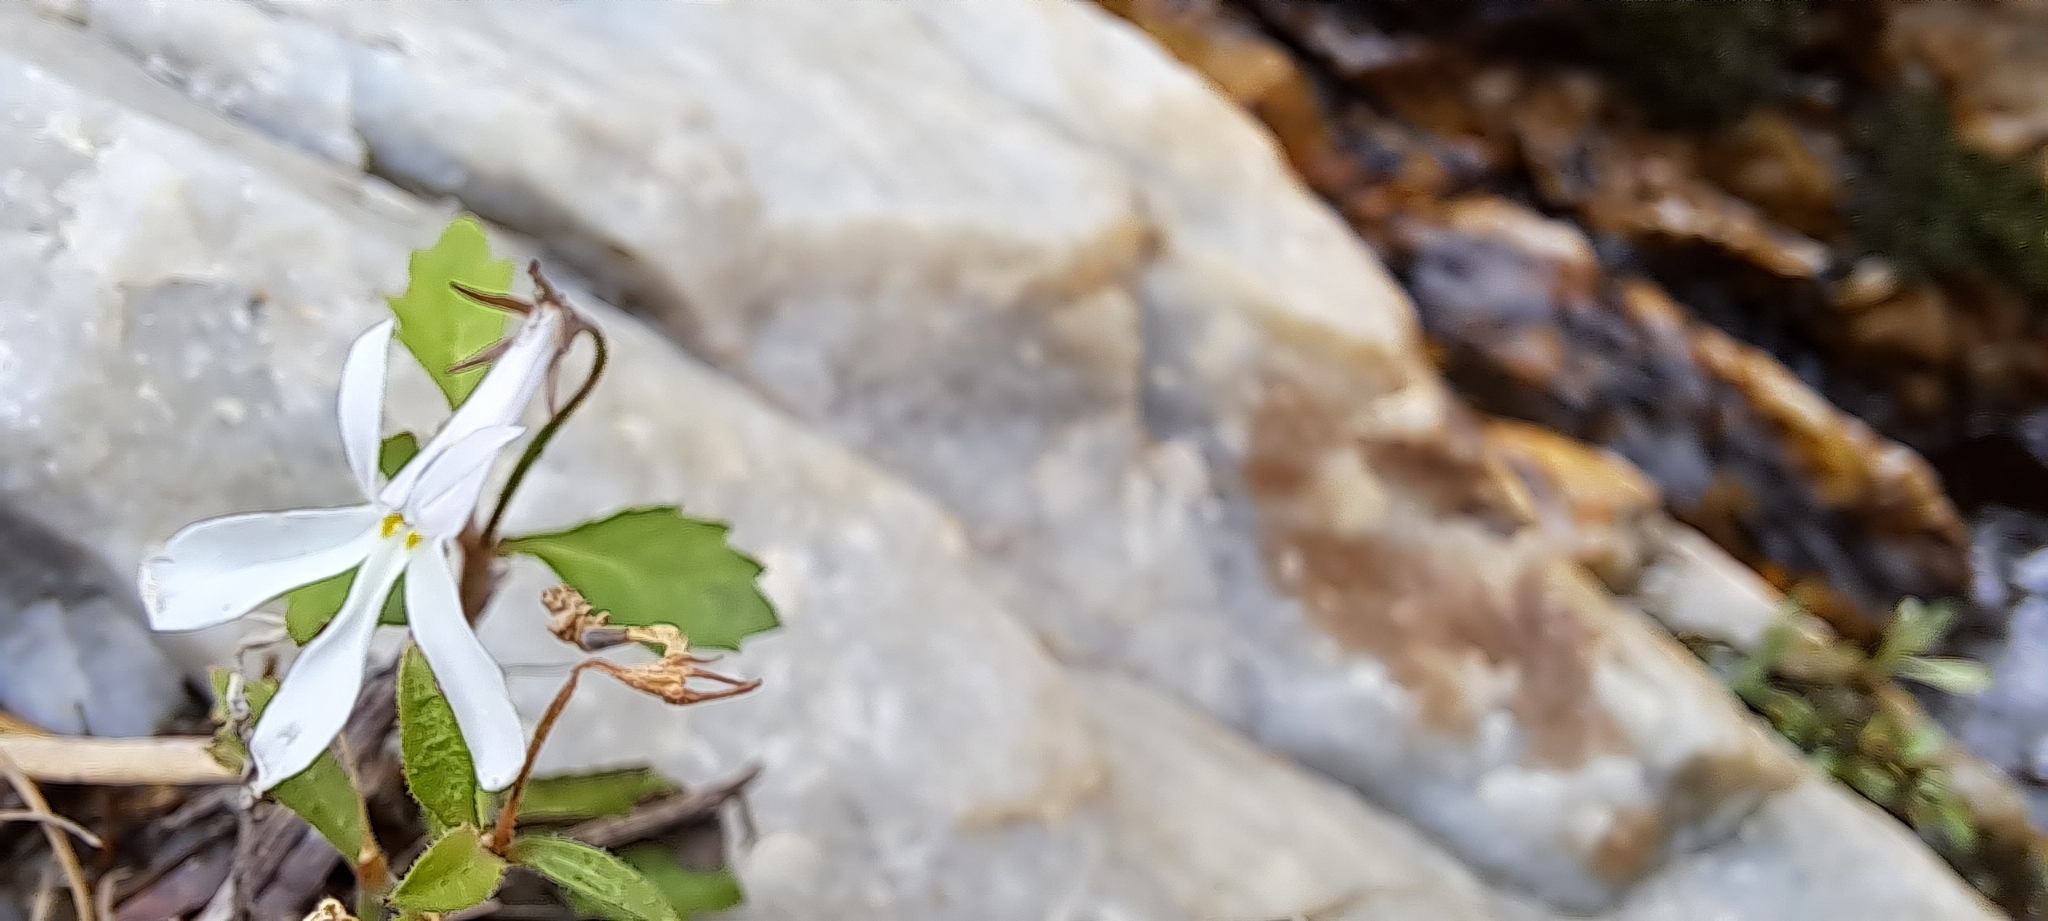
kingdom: Plantae
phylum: Tracheophyta
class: Magnoliopsida
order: Asterales
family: Campanulaceae
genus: Lobelia
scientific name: Lobelia pubescens
